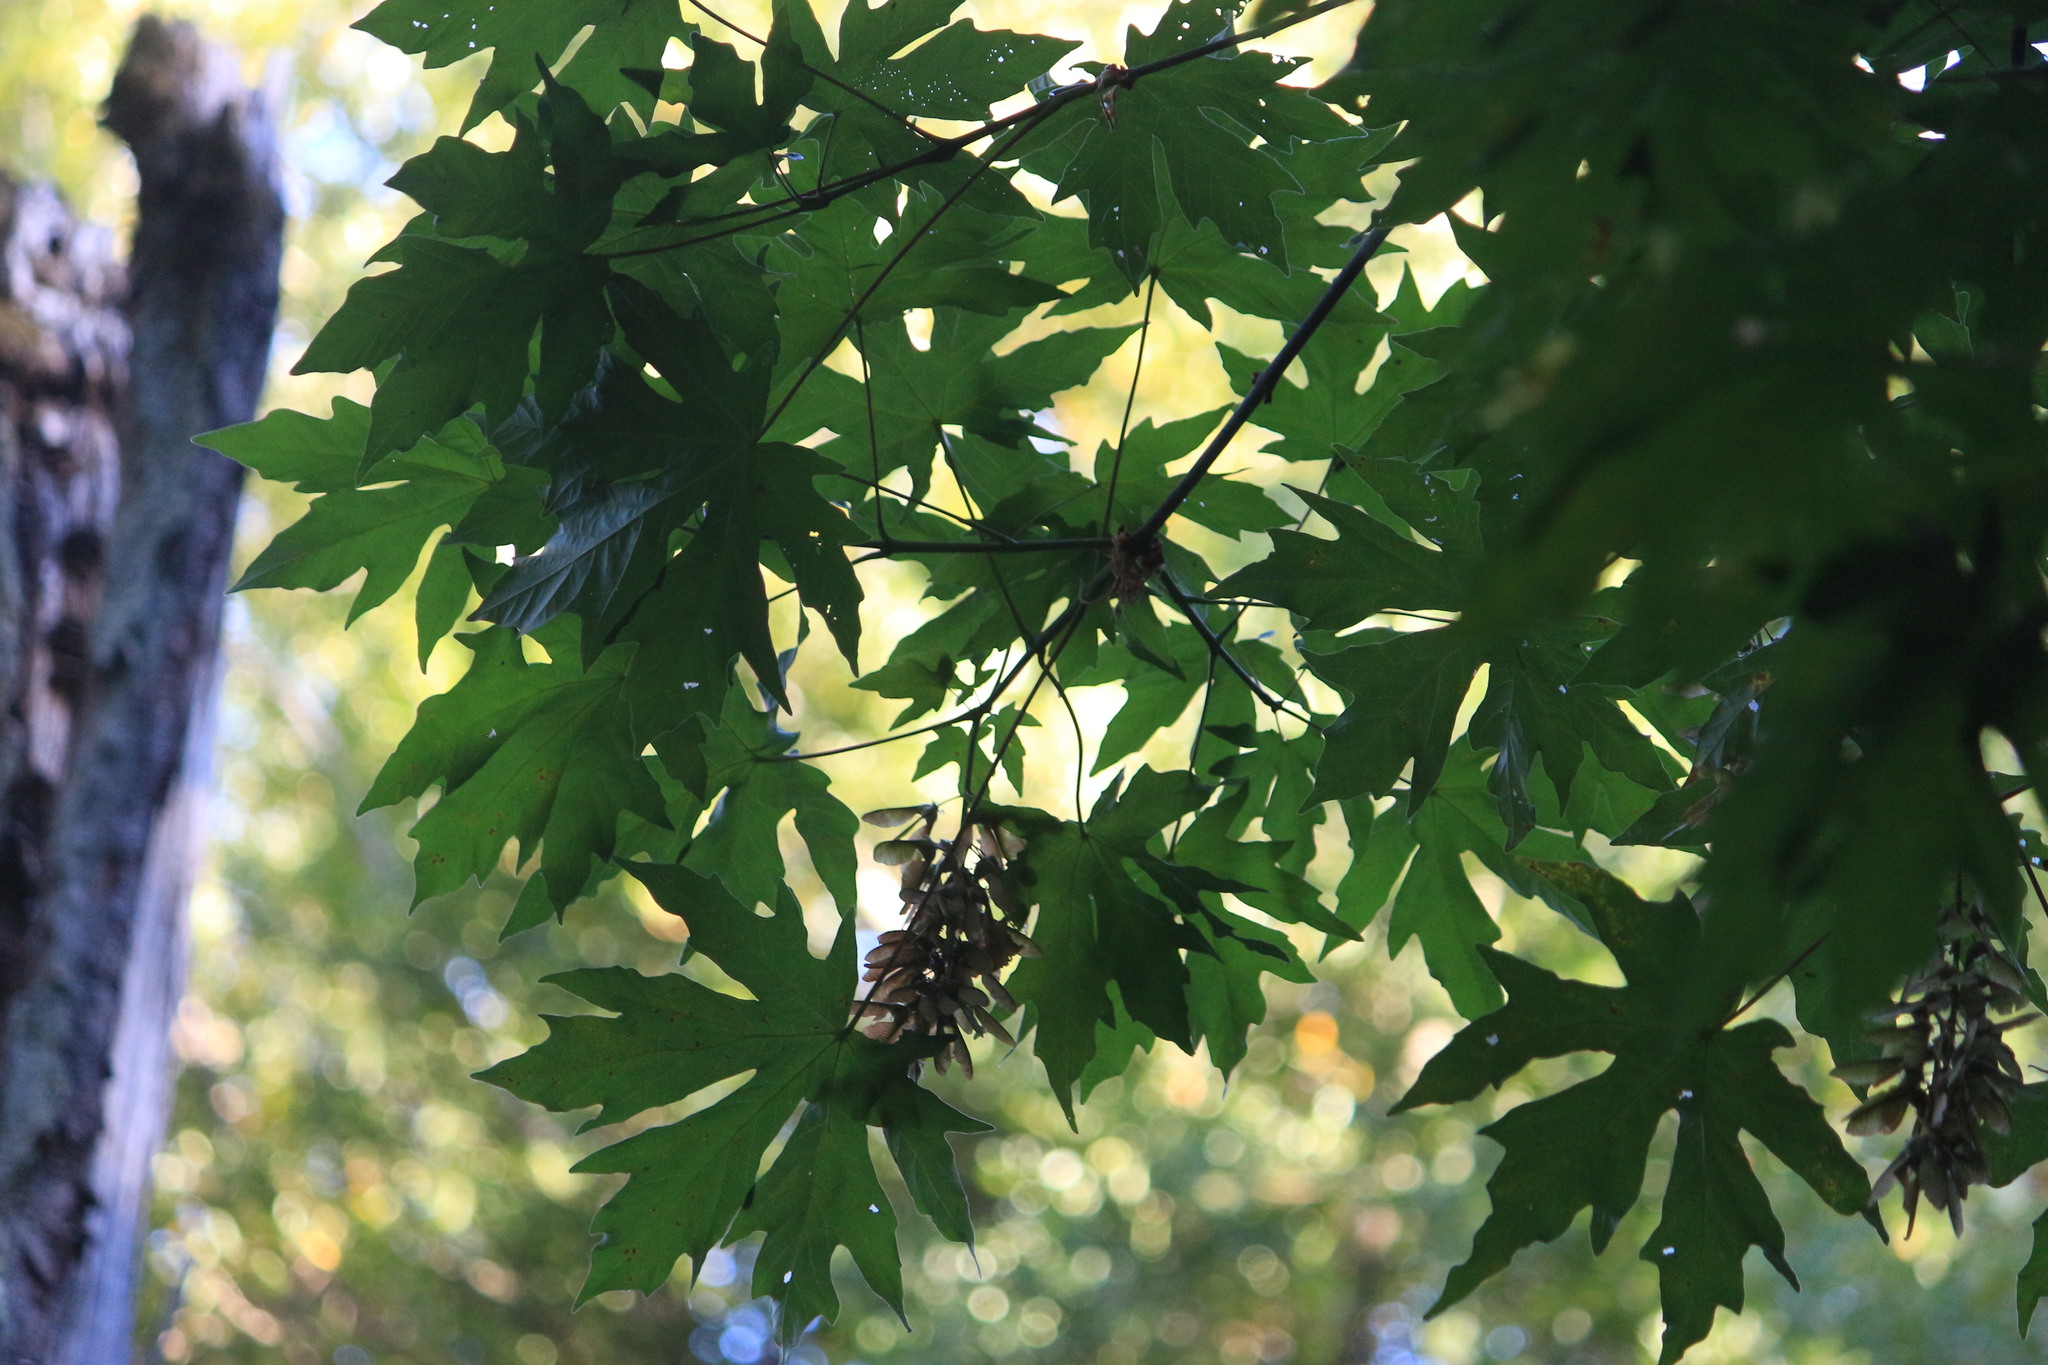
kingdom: Plantae
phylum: Tracheophyta
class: Magnoliopsida
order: Sapindales
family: Sapindaceae
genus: Acer
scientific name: Acer macrophyllum
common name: Oregon maple
